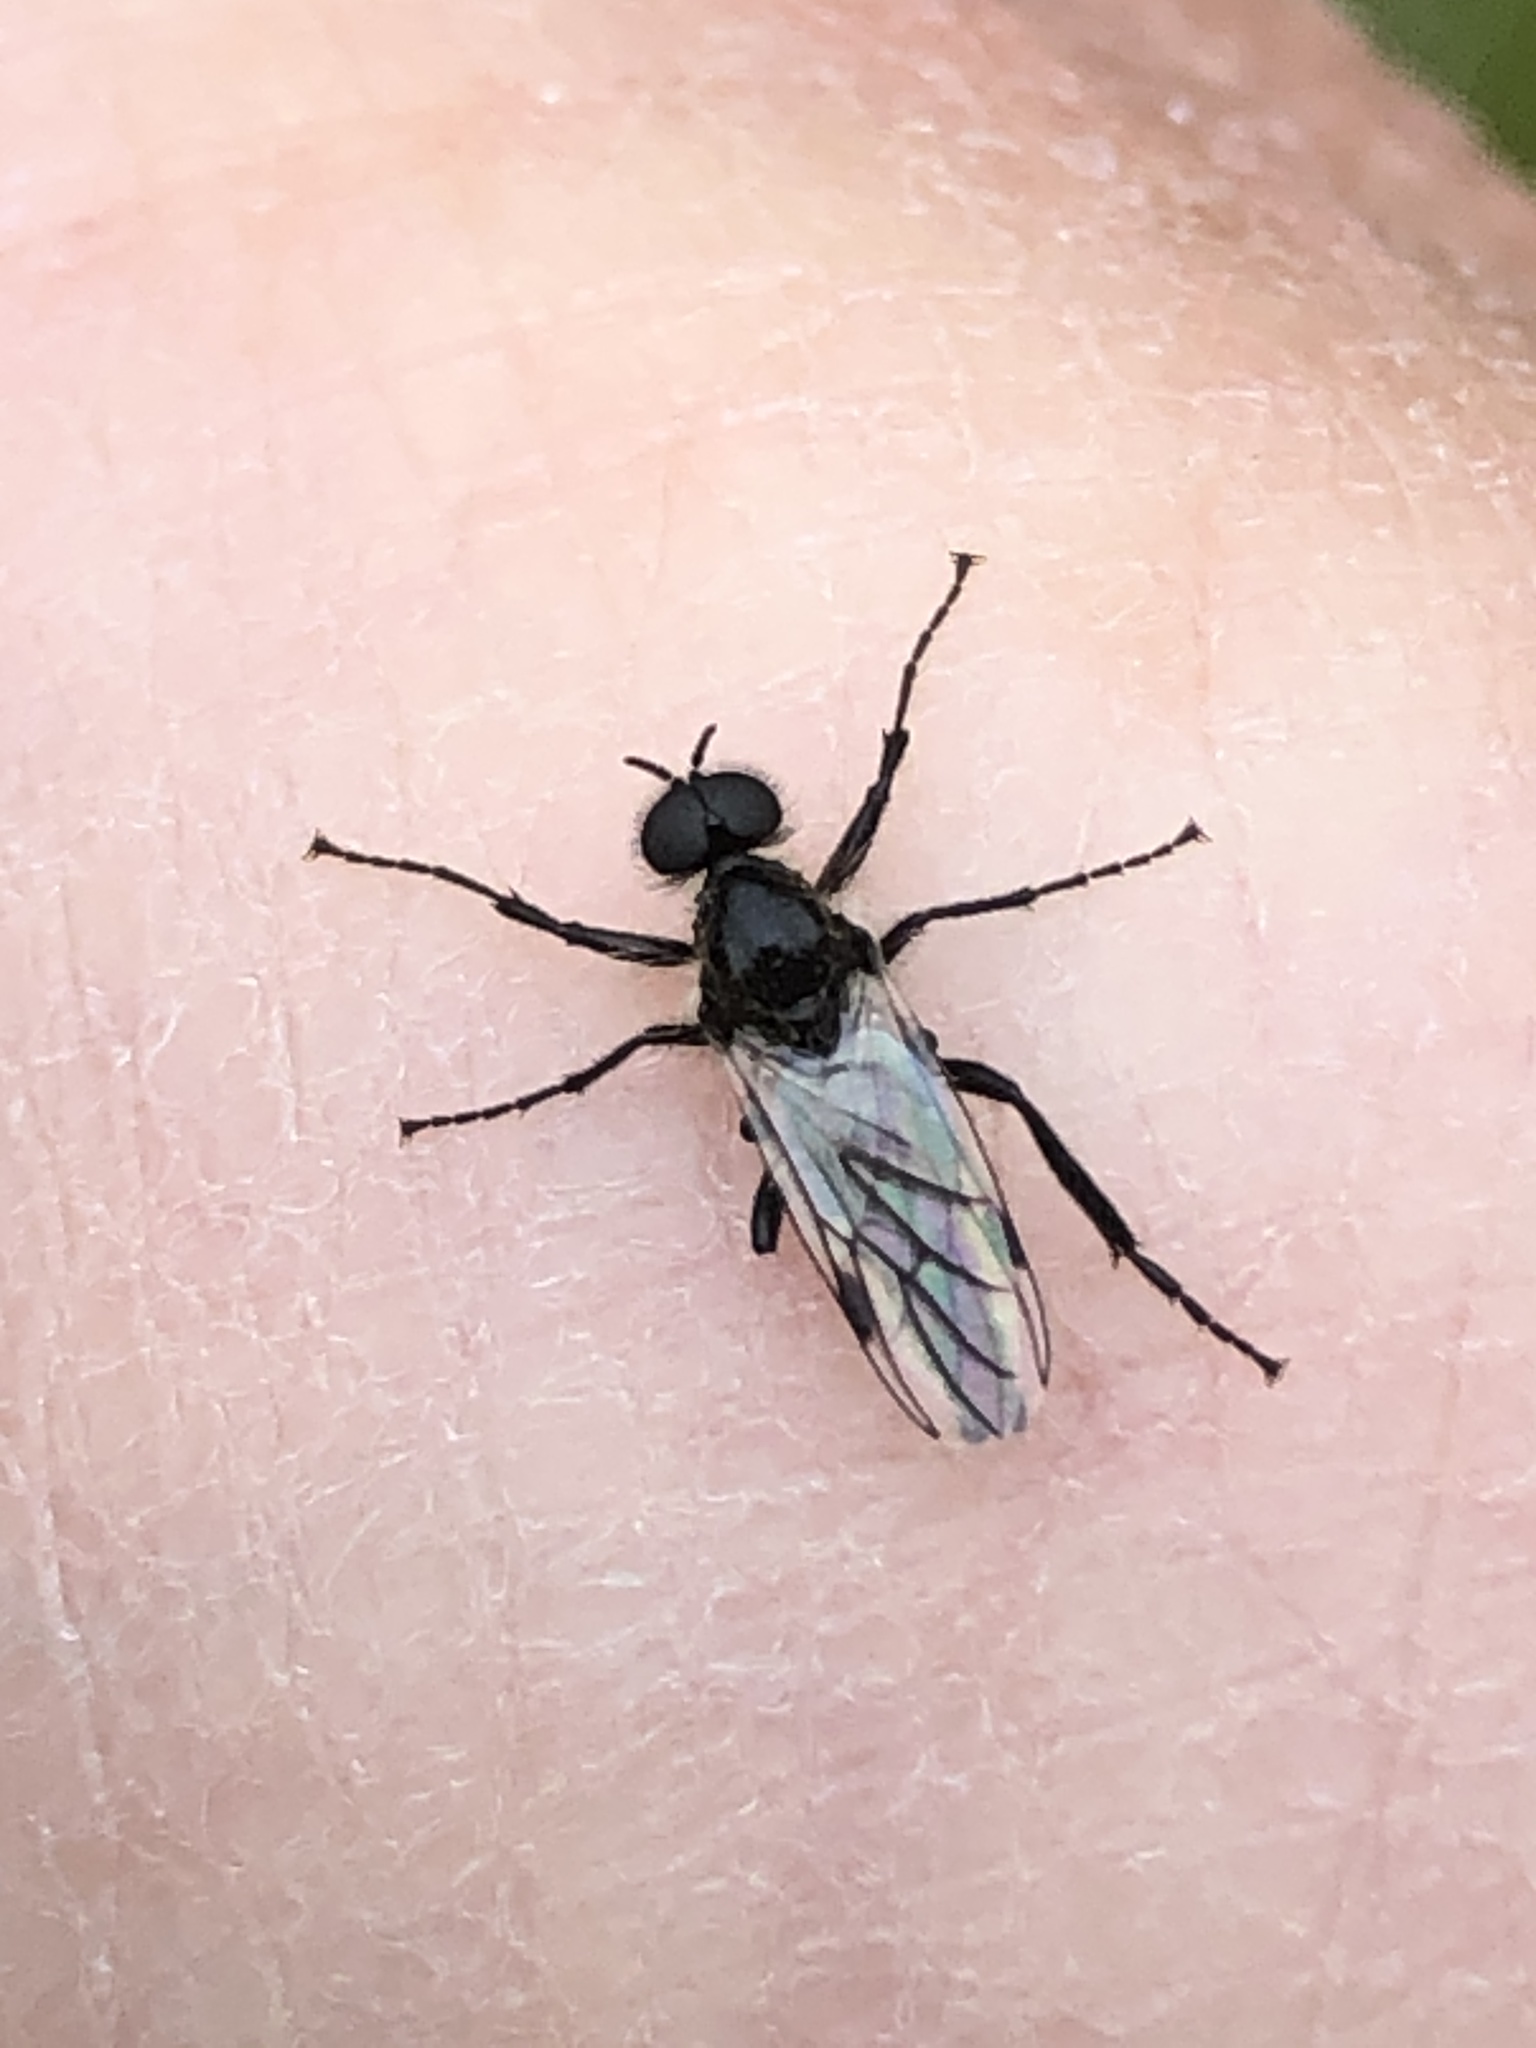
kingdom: Animalia
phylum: Arthropoda
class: Insecta
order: Diptera
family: Bibionidae
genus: Bibio
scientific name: Bibio albipennis
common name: White-winged march fly
